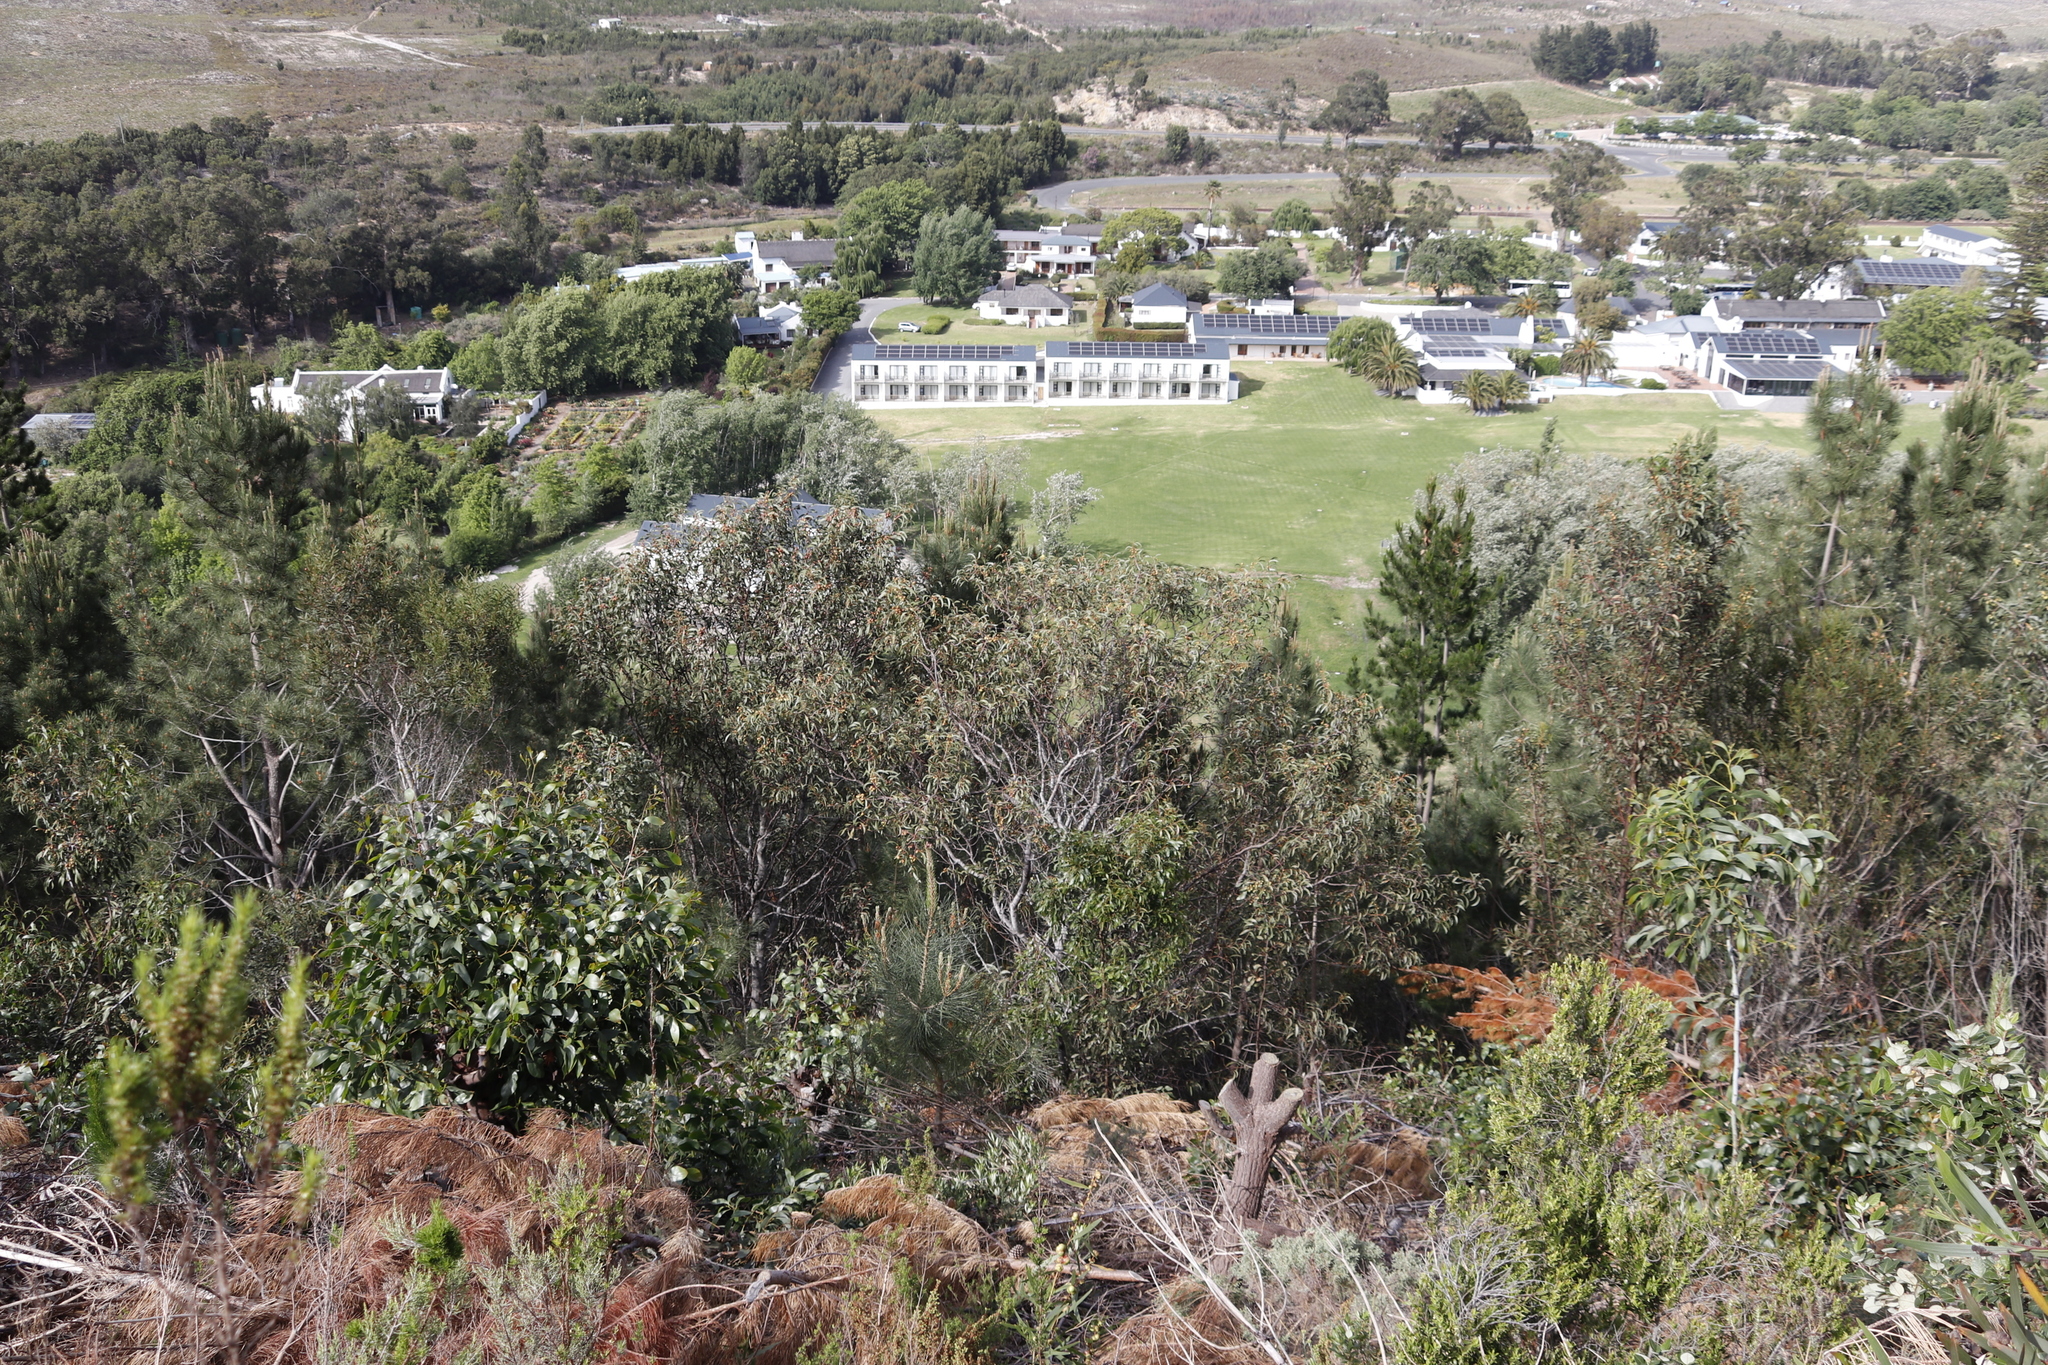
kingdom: Plantae
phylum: Tracheophyta
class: Magnoliopsida
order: Fabales
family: Fabaceae
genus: Acacia
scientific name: Acacia pycnantha
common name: Golden wattle
